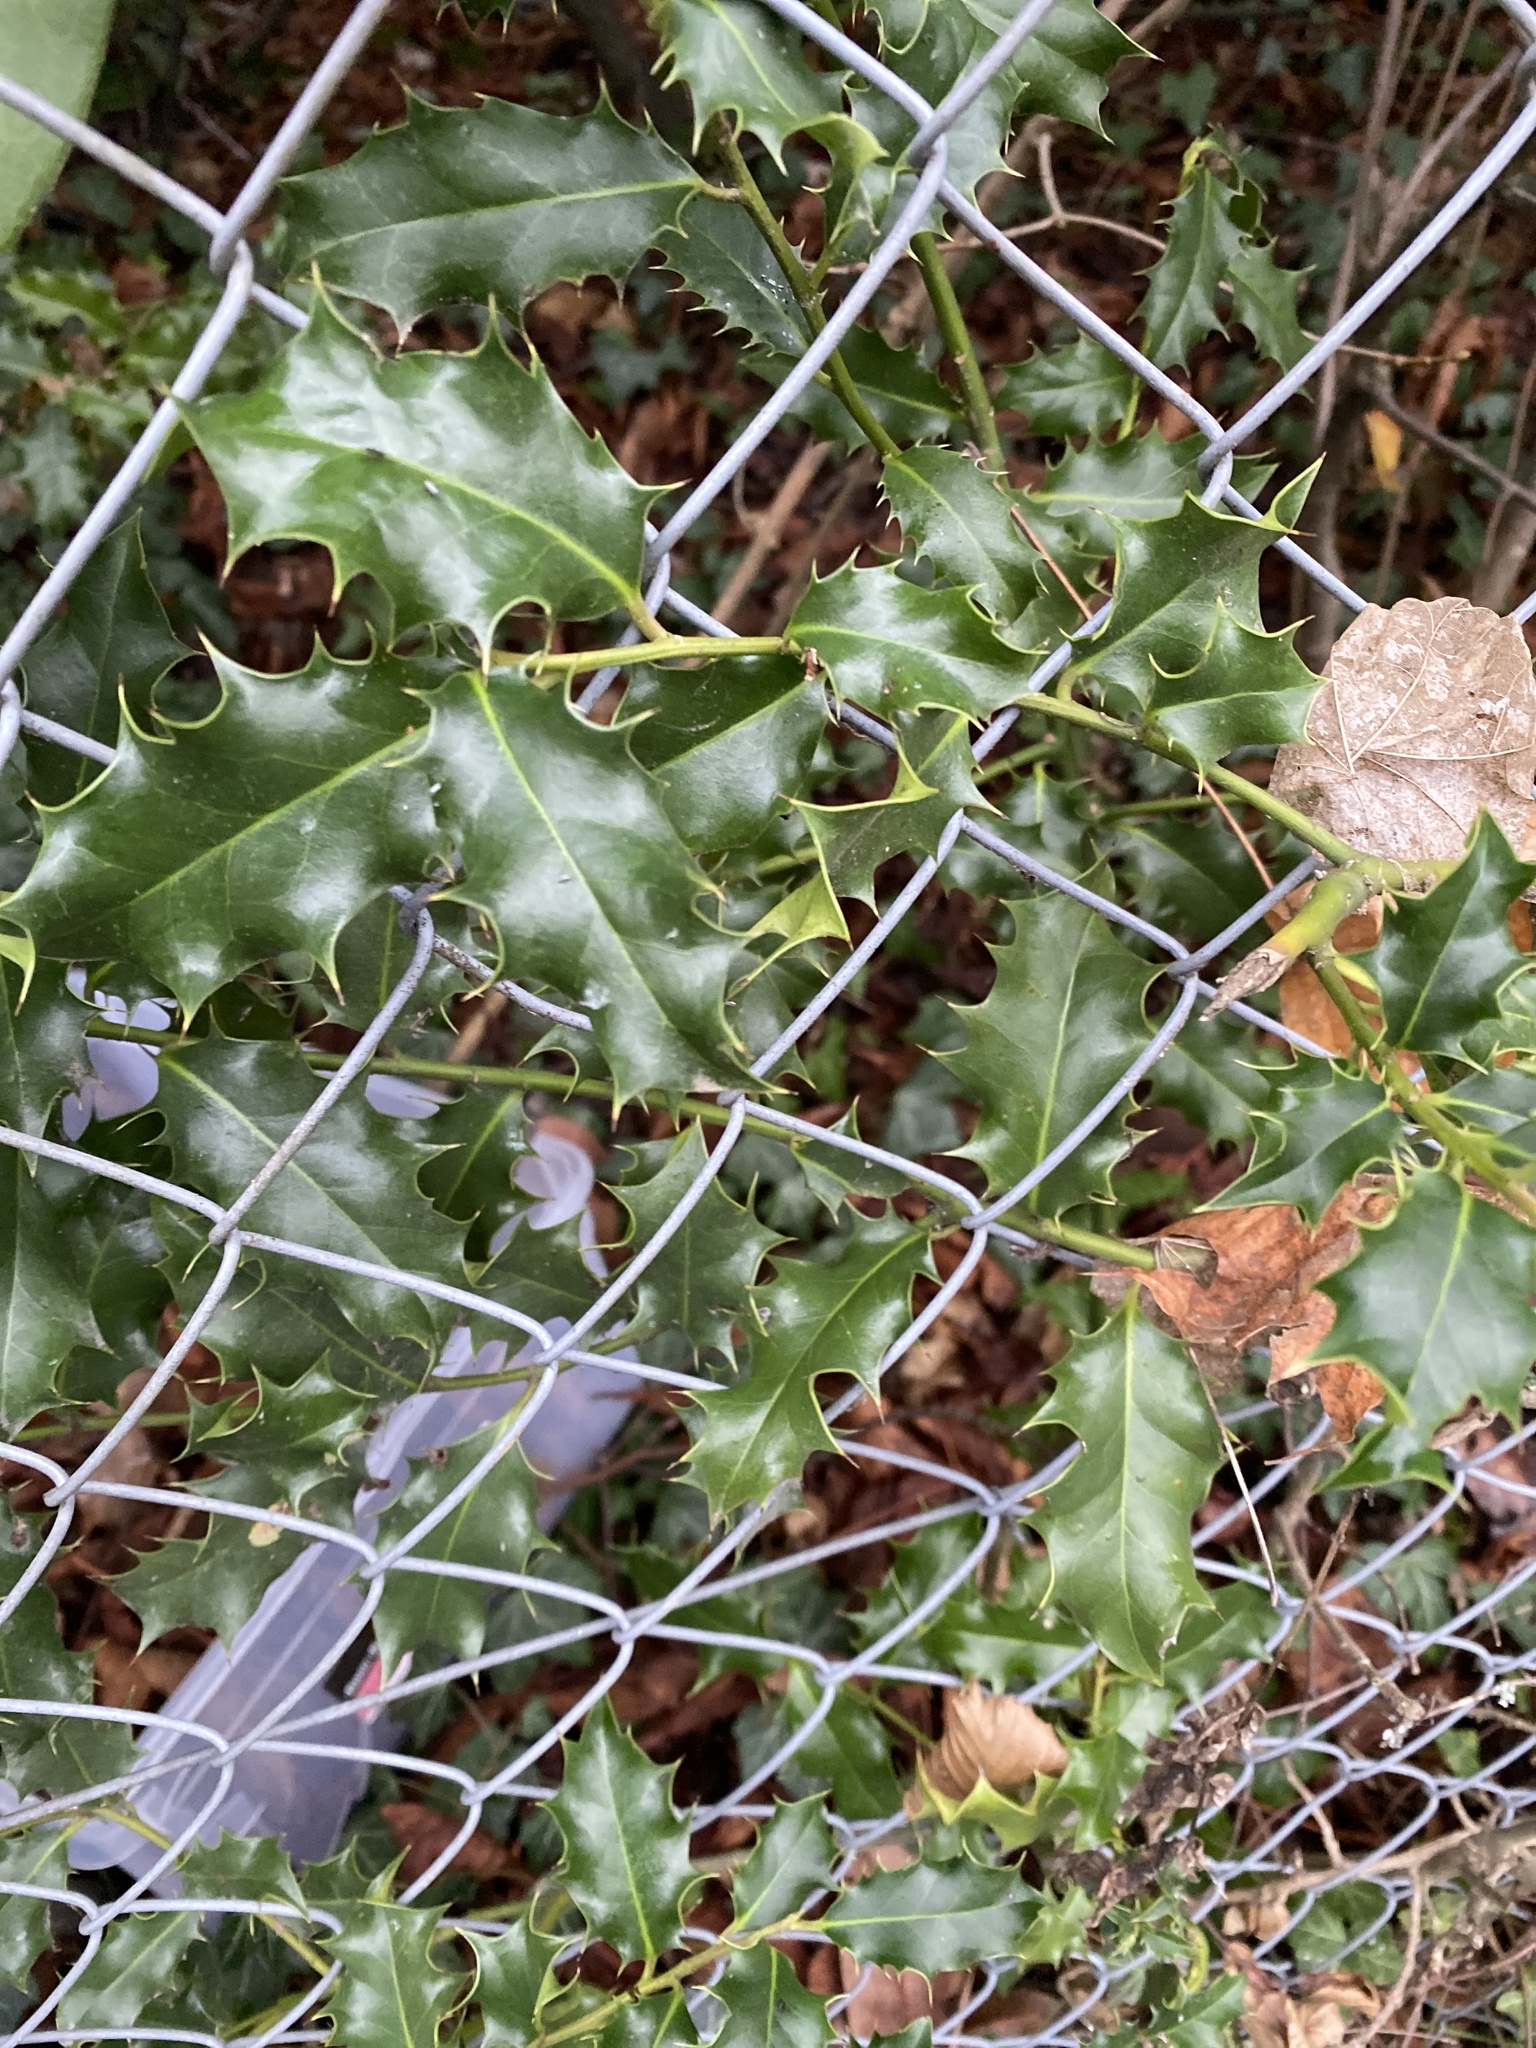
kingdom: Plantae
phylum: Tracheophyta
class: Magnoliopsida
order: Aquifoliales
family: Aquifoliaceae
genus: Ilex
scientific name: Ilex aquifolium
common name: English holly
